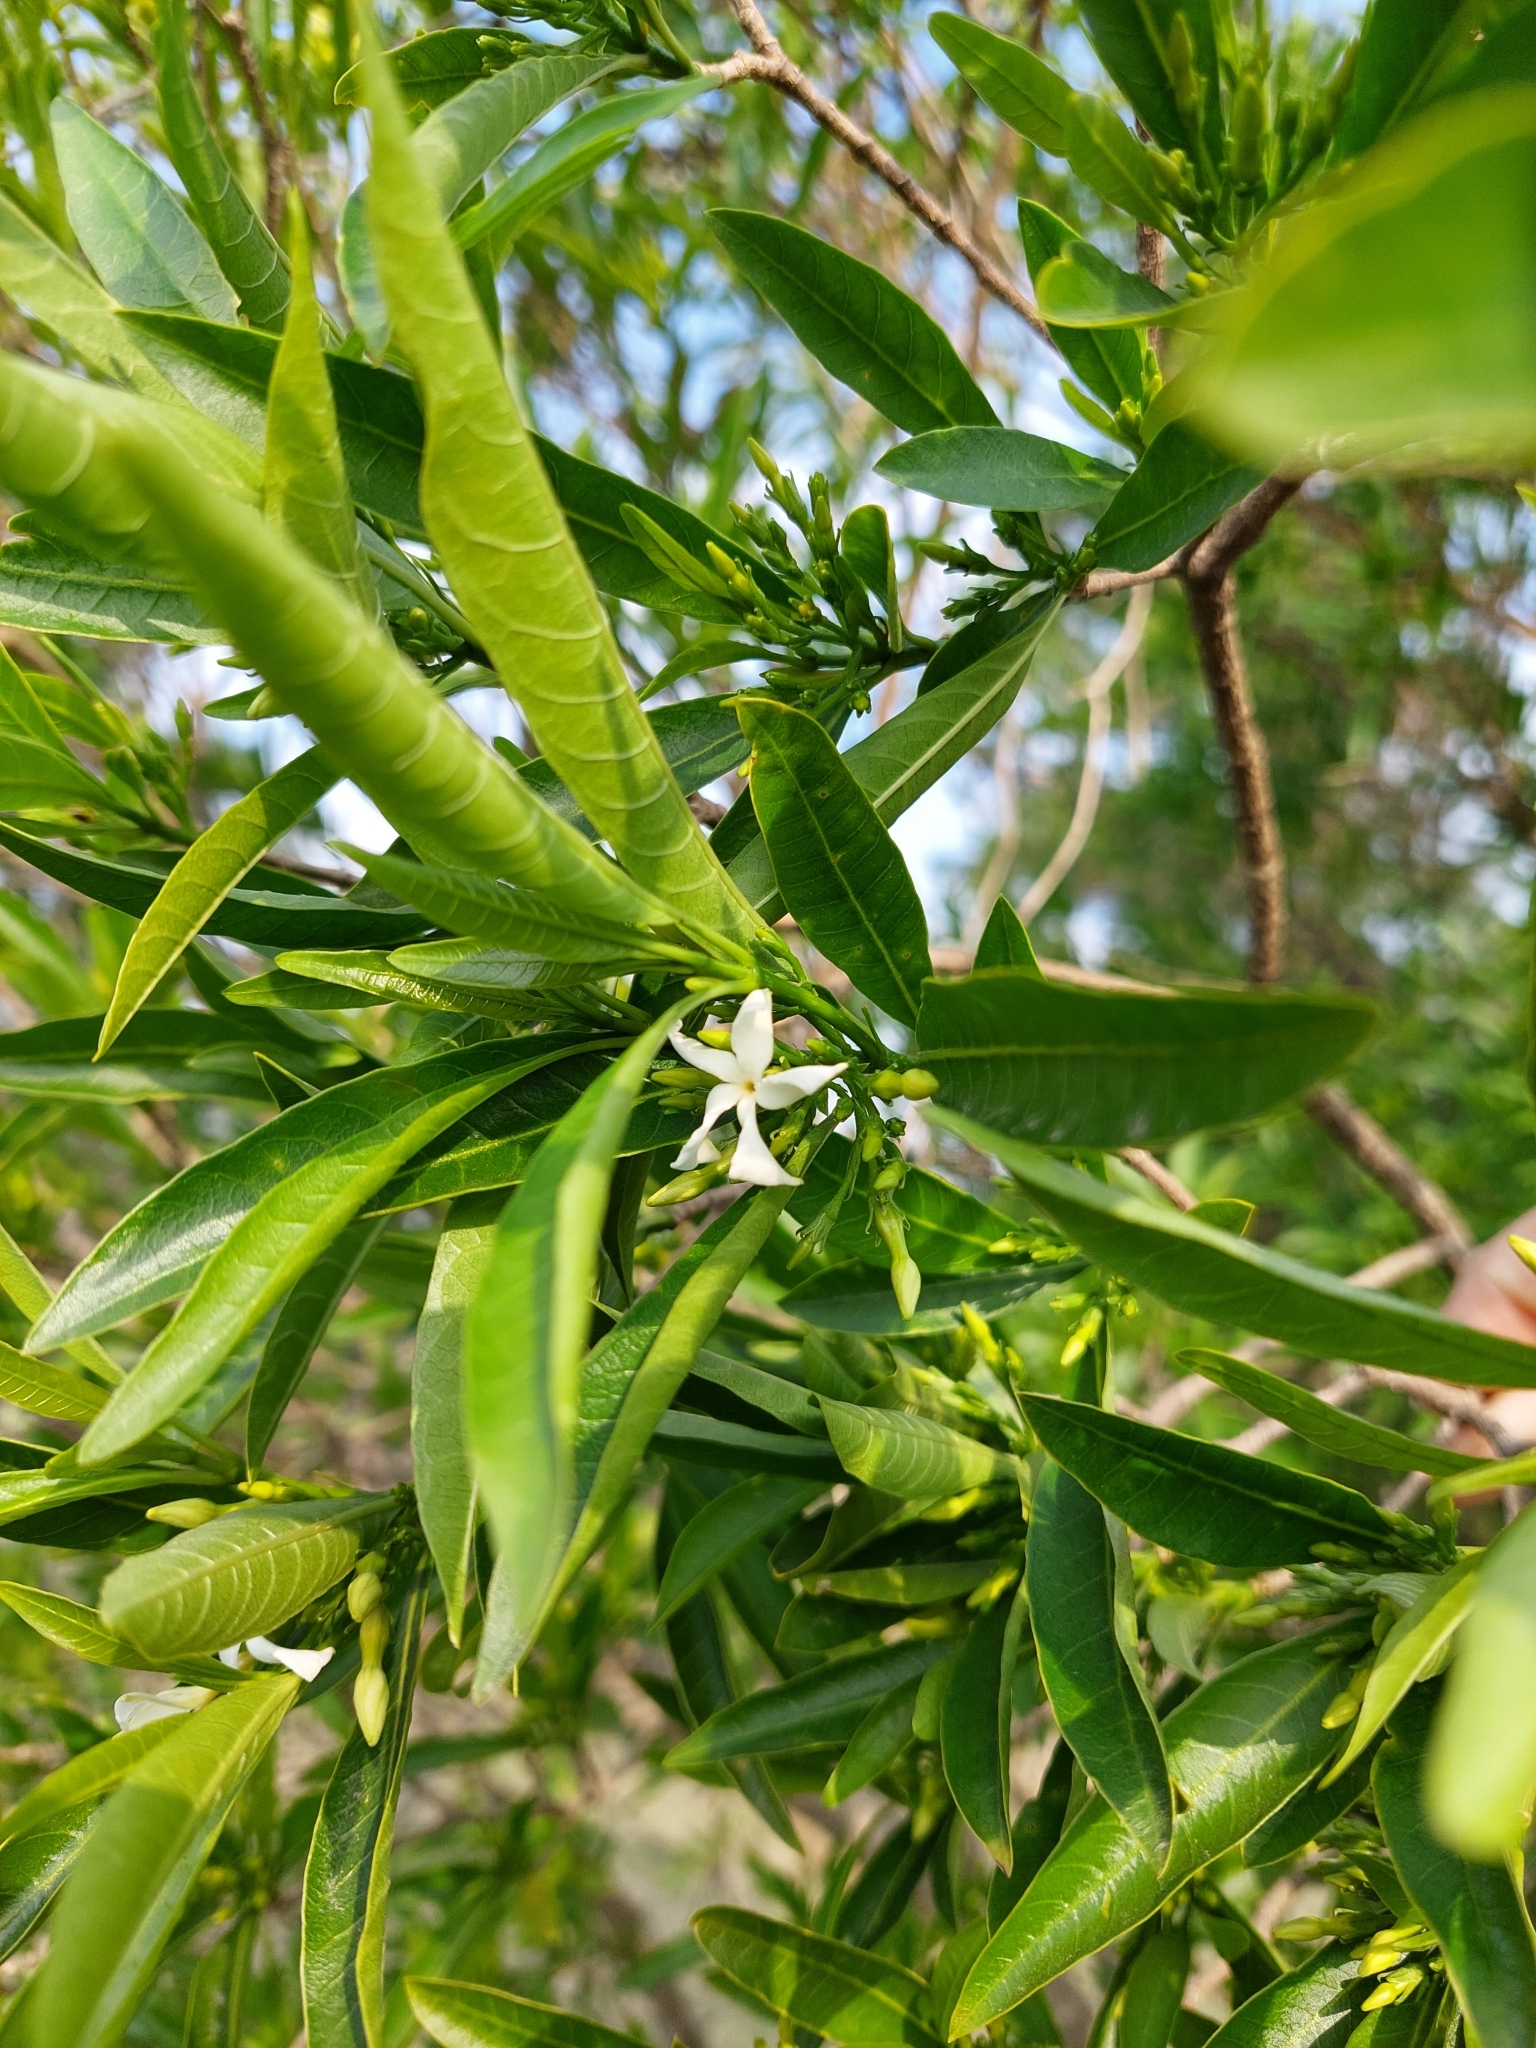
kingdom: Plantae
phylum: Tracheophyta
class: Magnoliopsida
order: Gentianales
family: Apocynaceae
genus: Tabernaemontana
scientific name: Tabernaemontana catharinensis
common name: Pinwheel-flower
